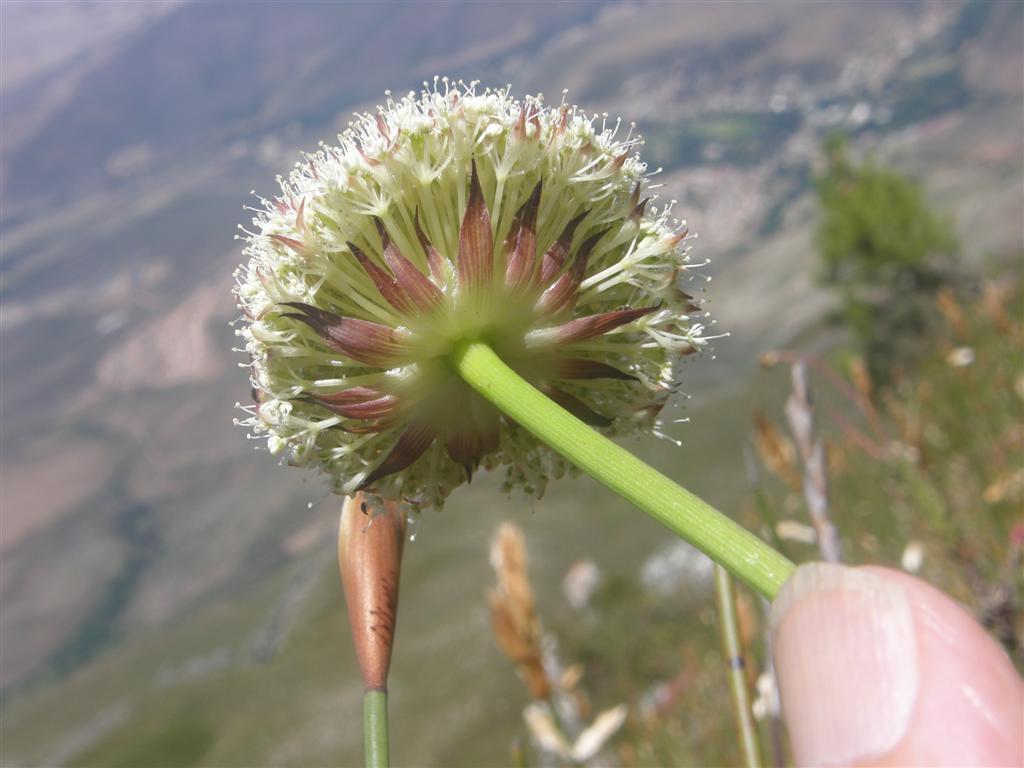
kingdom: Plantae
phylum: Tracheophyta
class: Magnoliopsida
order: Apiales
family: Apiaceae
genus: Hermas
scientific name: Hermas ciliata
